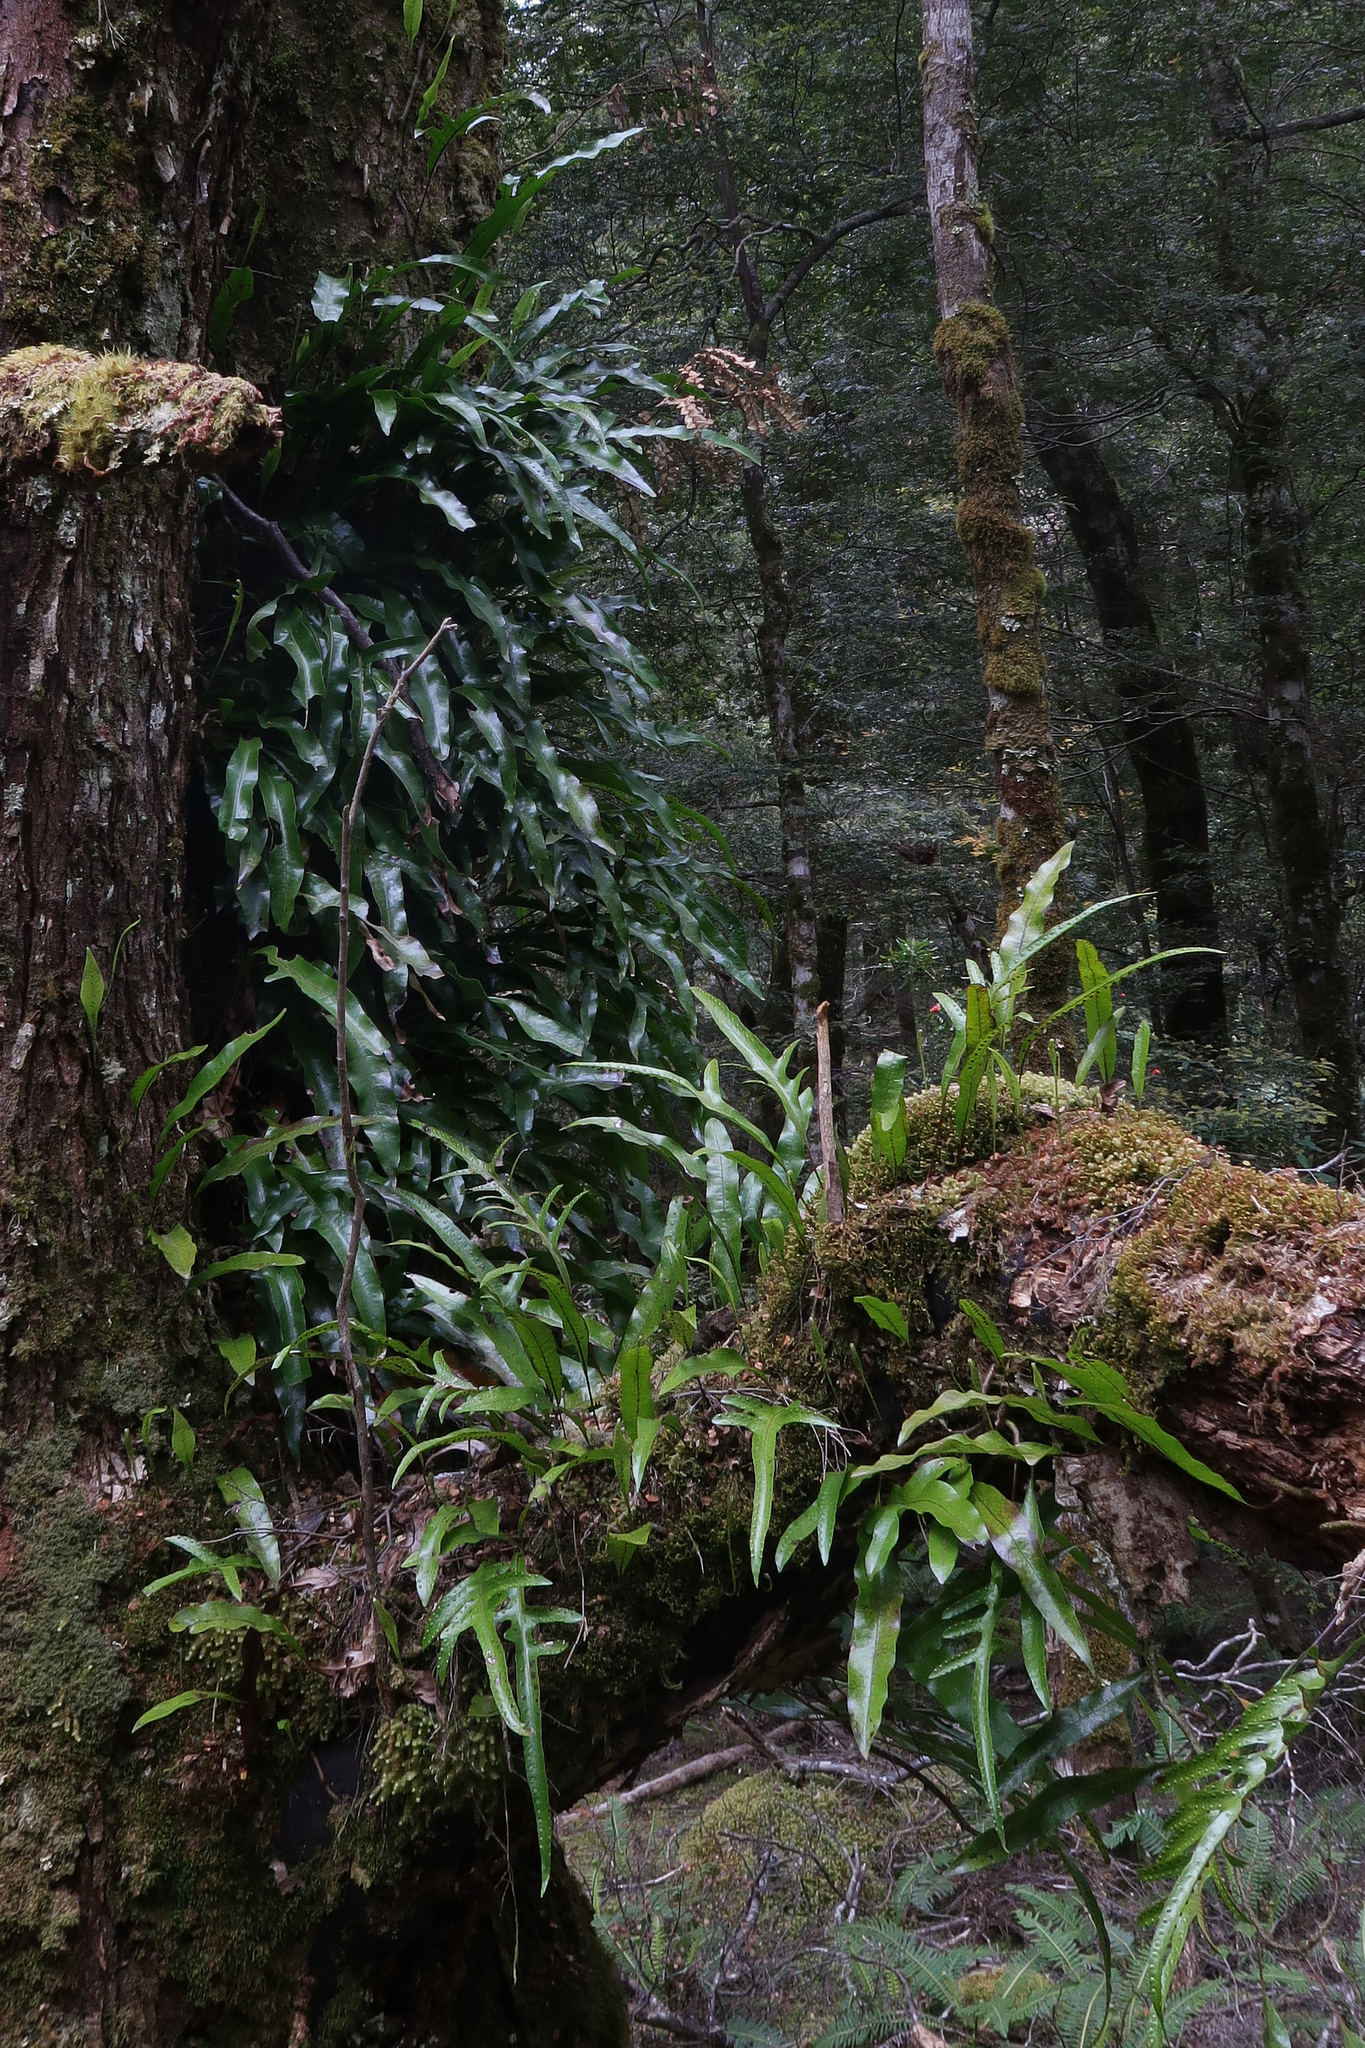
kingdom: Plantae
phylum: Tracheophyta
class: Polypodiopsida
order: Polypodiales
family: Polypodiaceae
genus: Lecanopteris
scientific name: Lecanopteris pustulata
